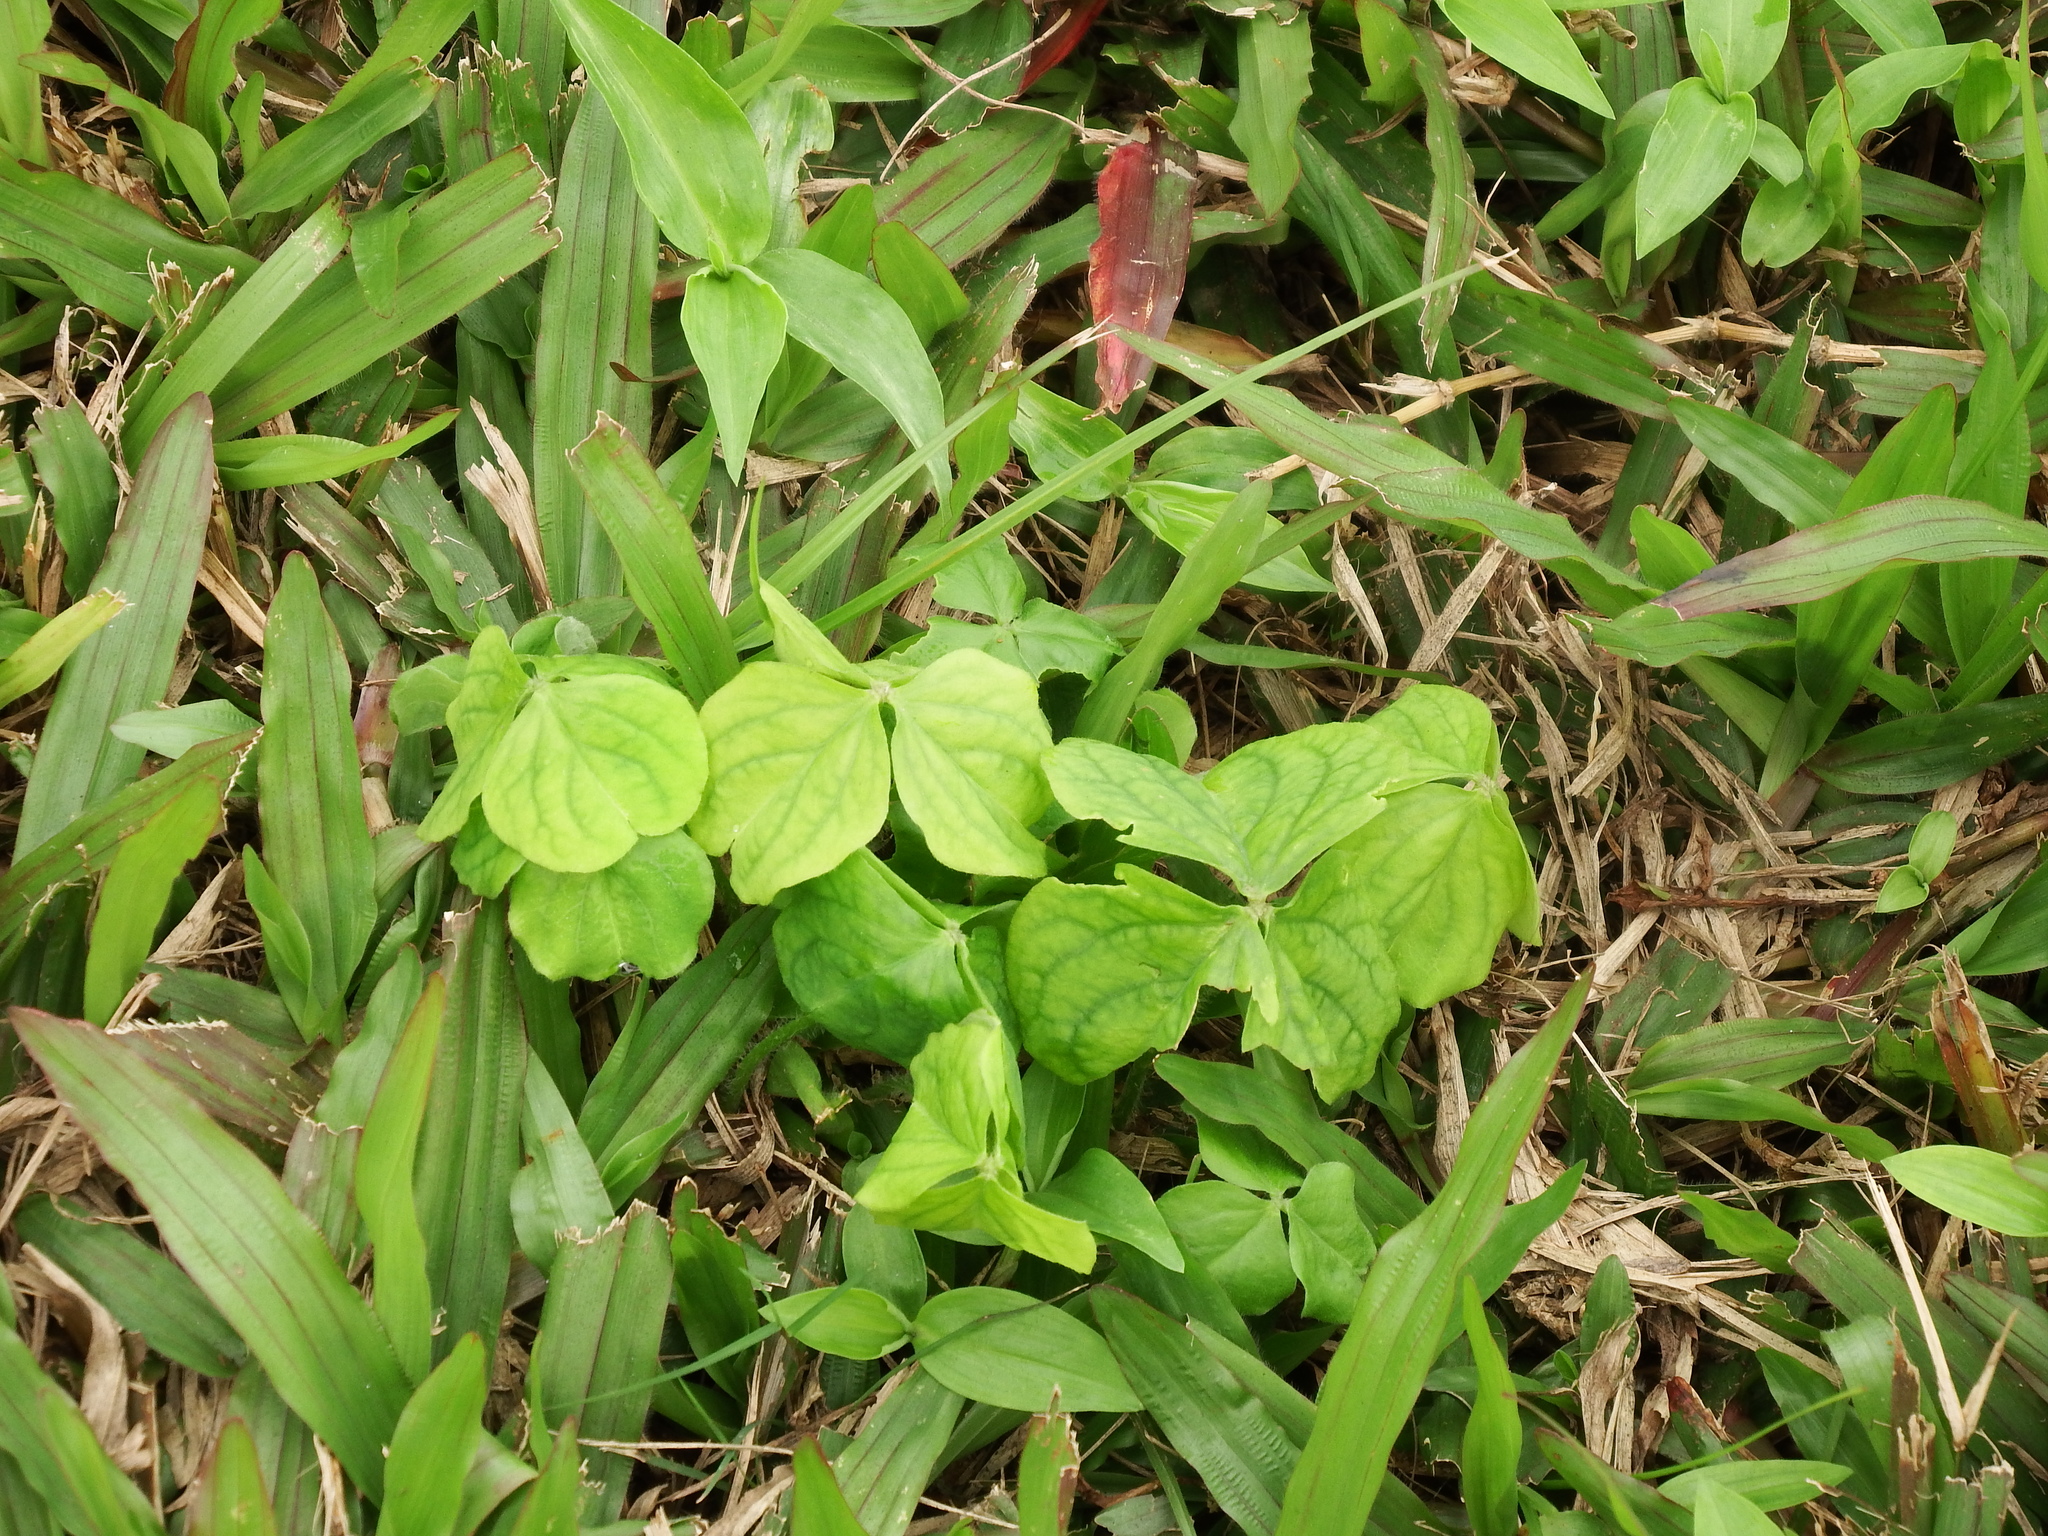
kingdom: Plantae
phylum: Tracheophyta
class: Magnoliopsida
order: Oxalidales
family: Oxalidaceae
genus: Oxalis
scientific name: Oxalis debilis
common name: Large-flowered pink-sorrel
